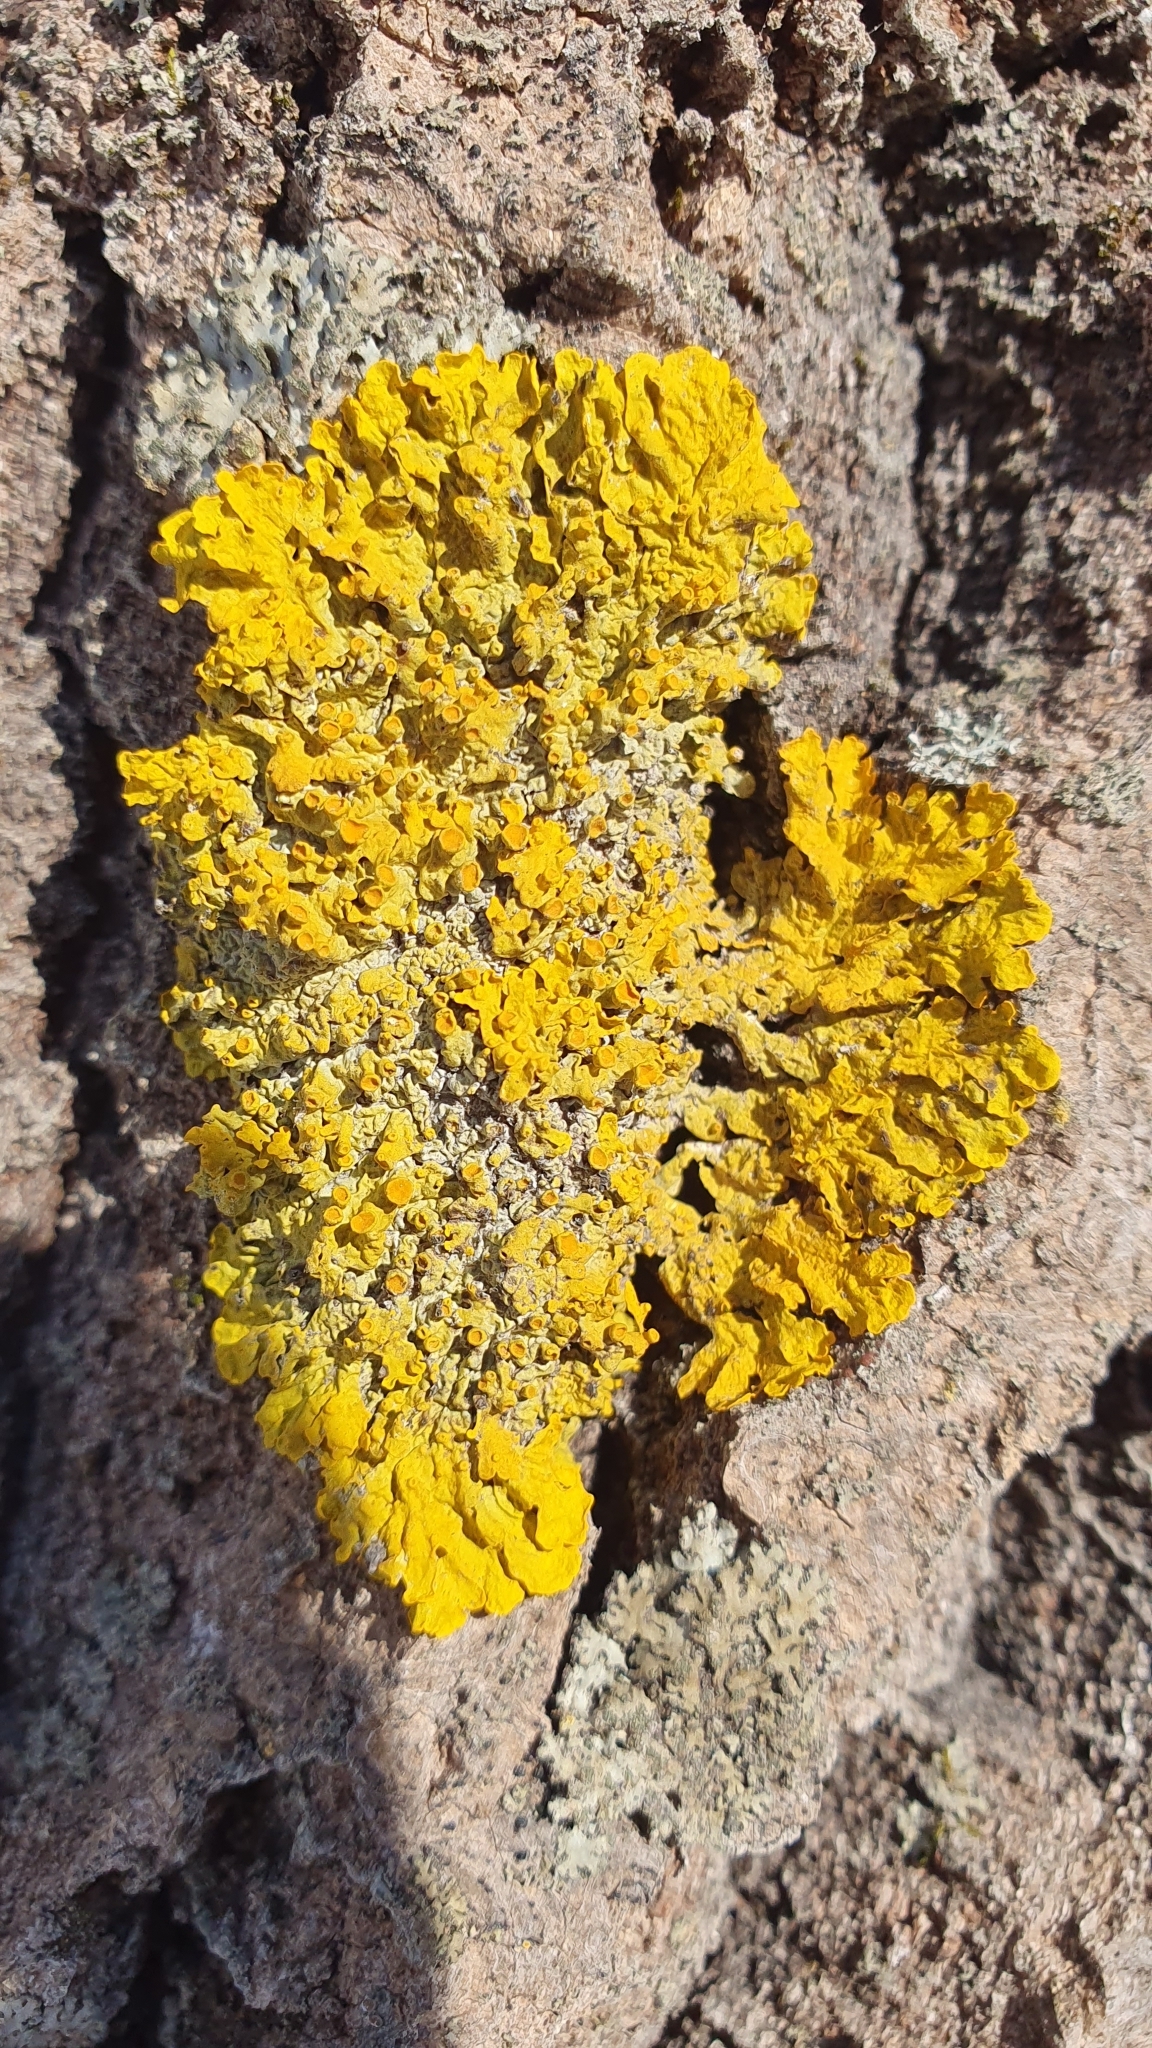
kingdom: Fungi
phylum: Ascomycota
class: Lecanoromycetes
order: Teloschistales
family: Teloschistaceae
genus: Xanthoria
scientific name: Xanthoria parietina
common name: Common orange lichen
